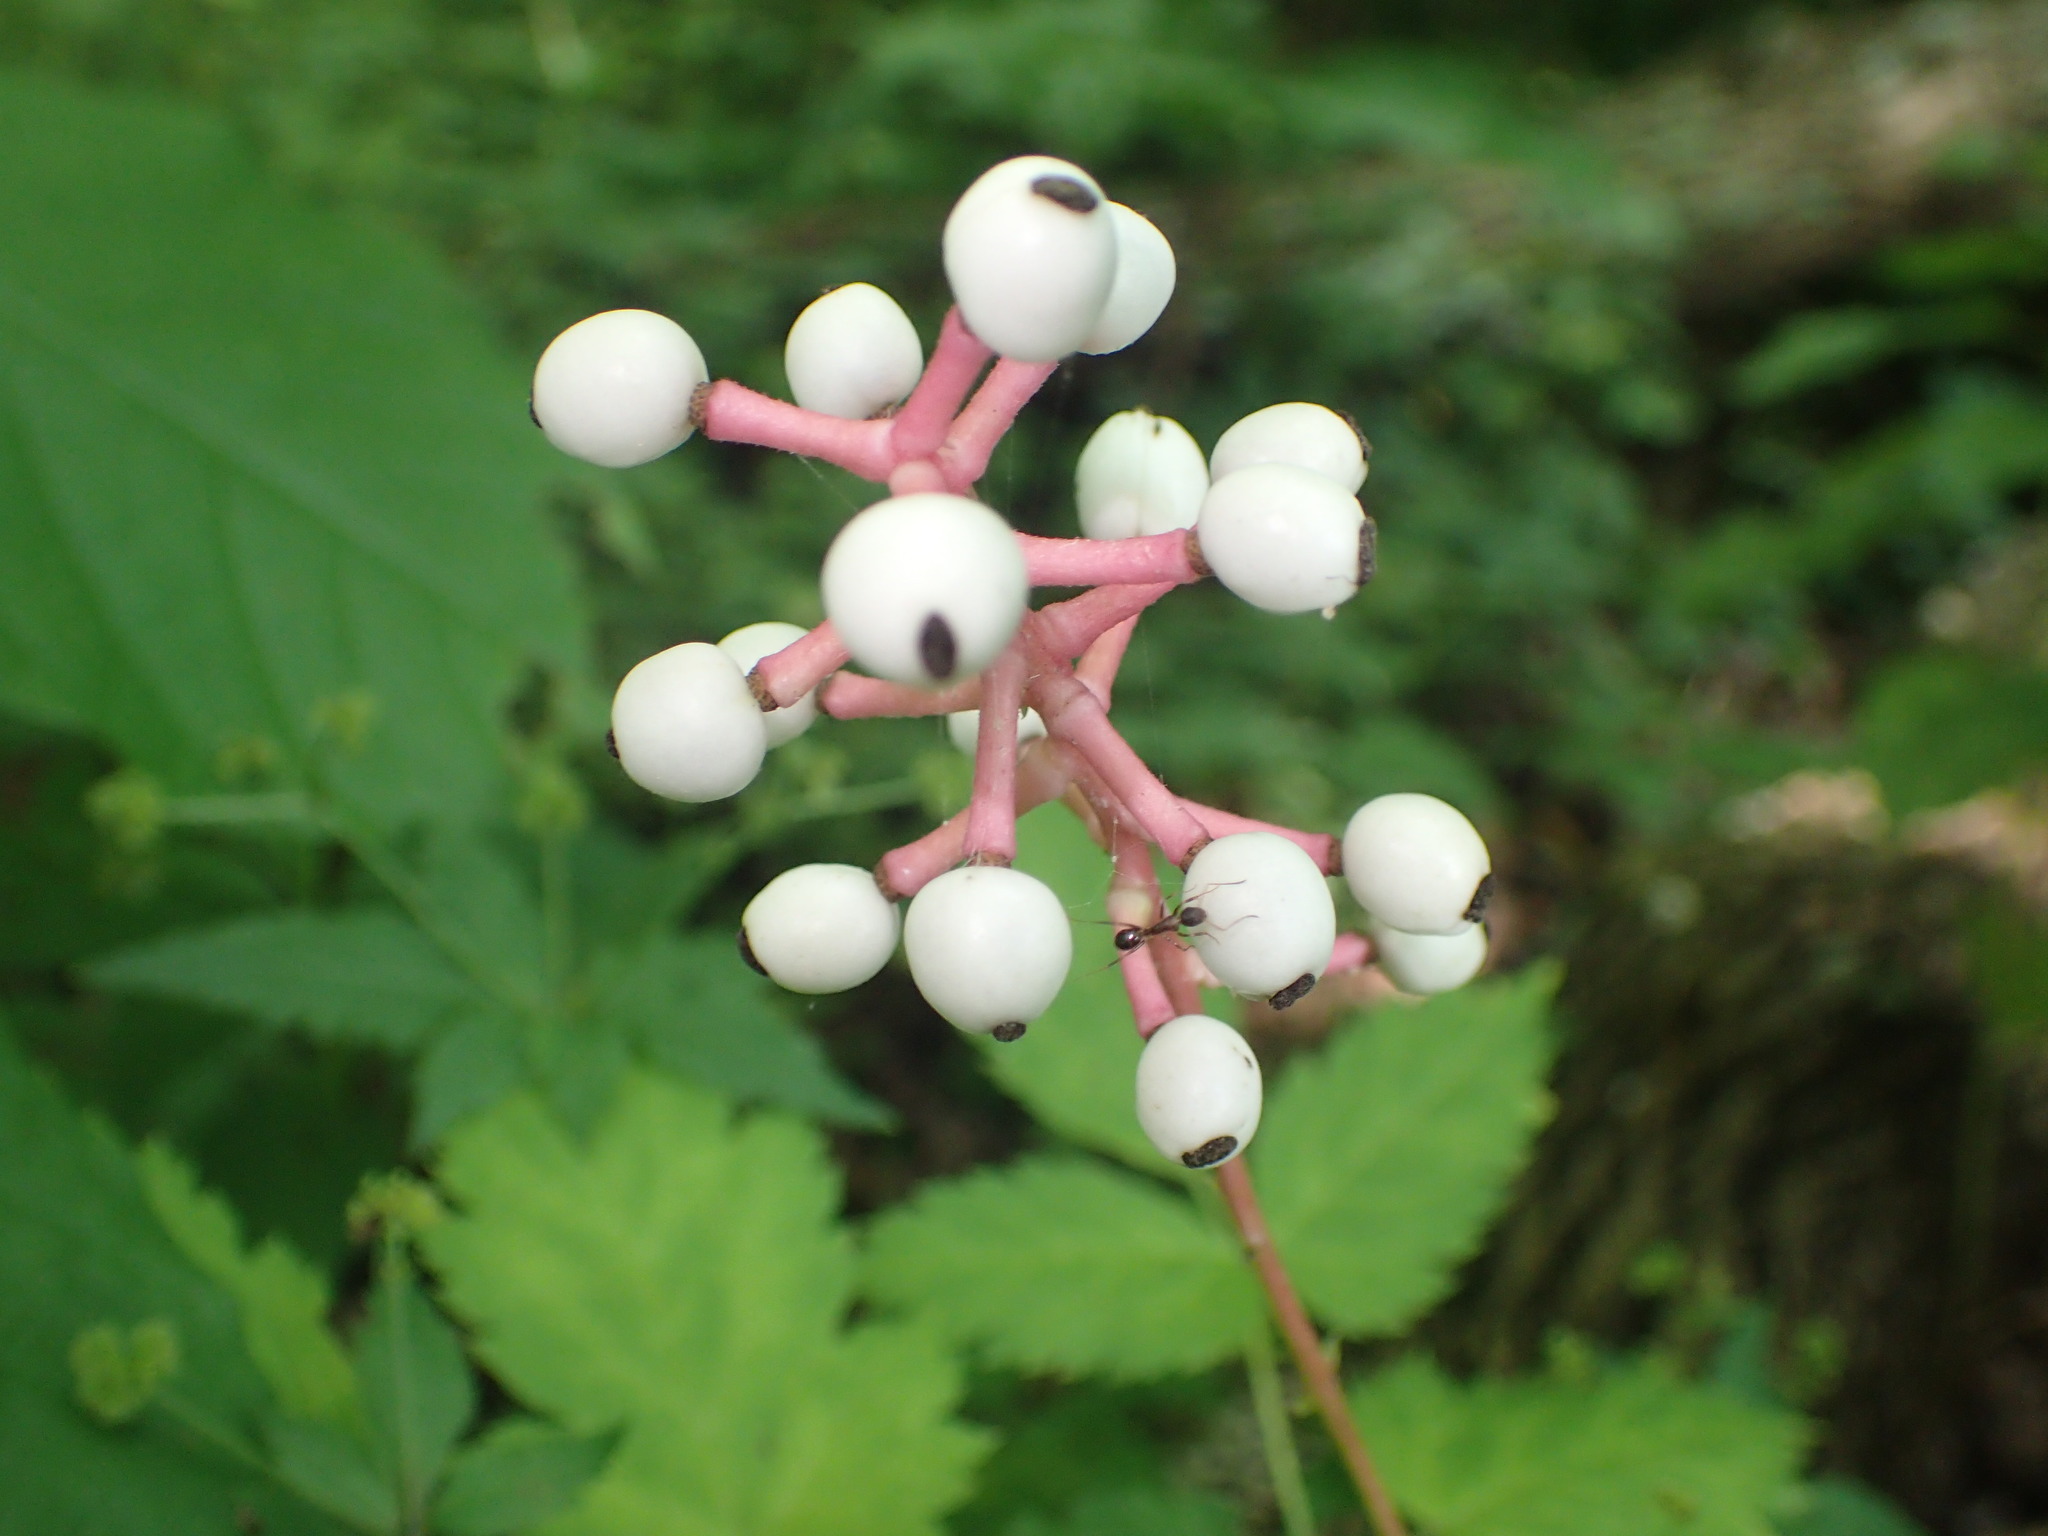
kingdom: Plantae
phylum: Tracheophyta
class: Magnoliopsida
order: Ranunculales
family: Ranunculaceae
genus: Actaea
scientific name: Actaea pachypoda
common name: Doll's-eyes
